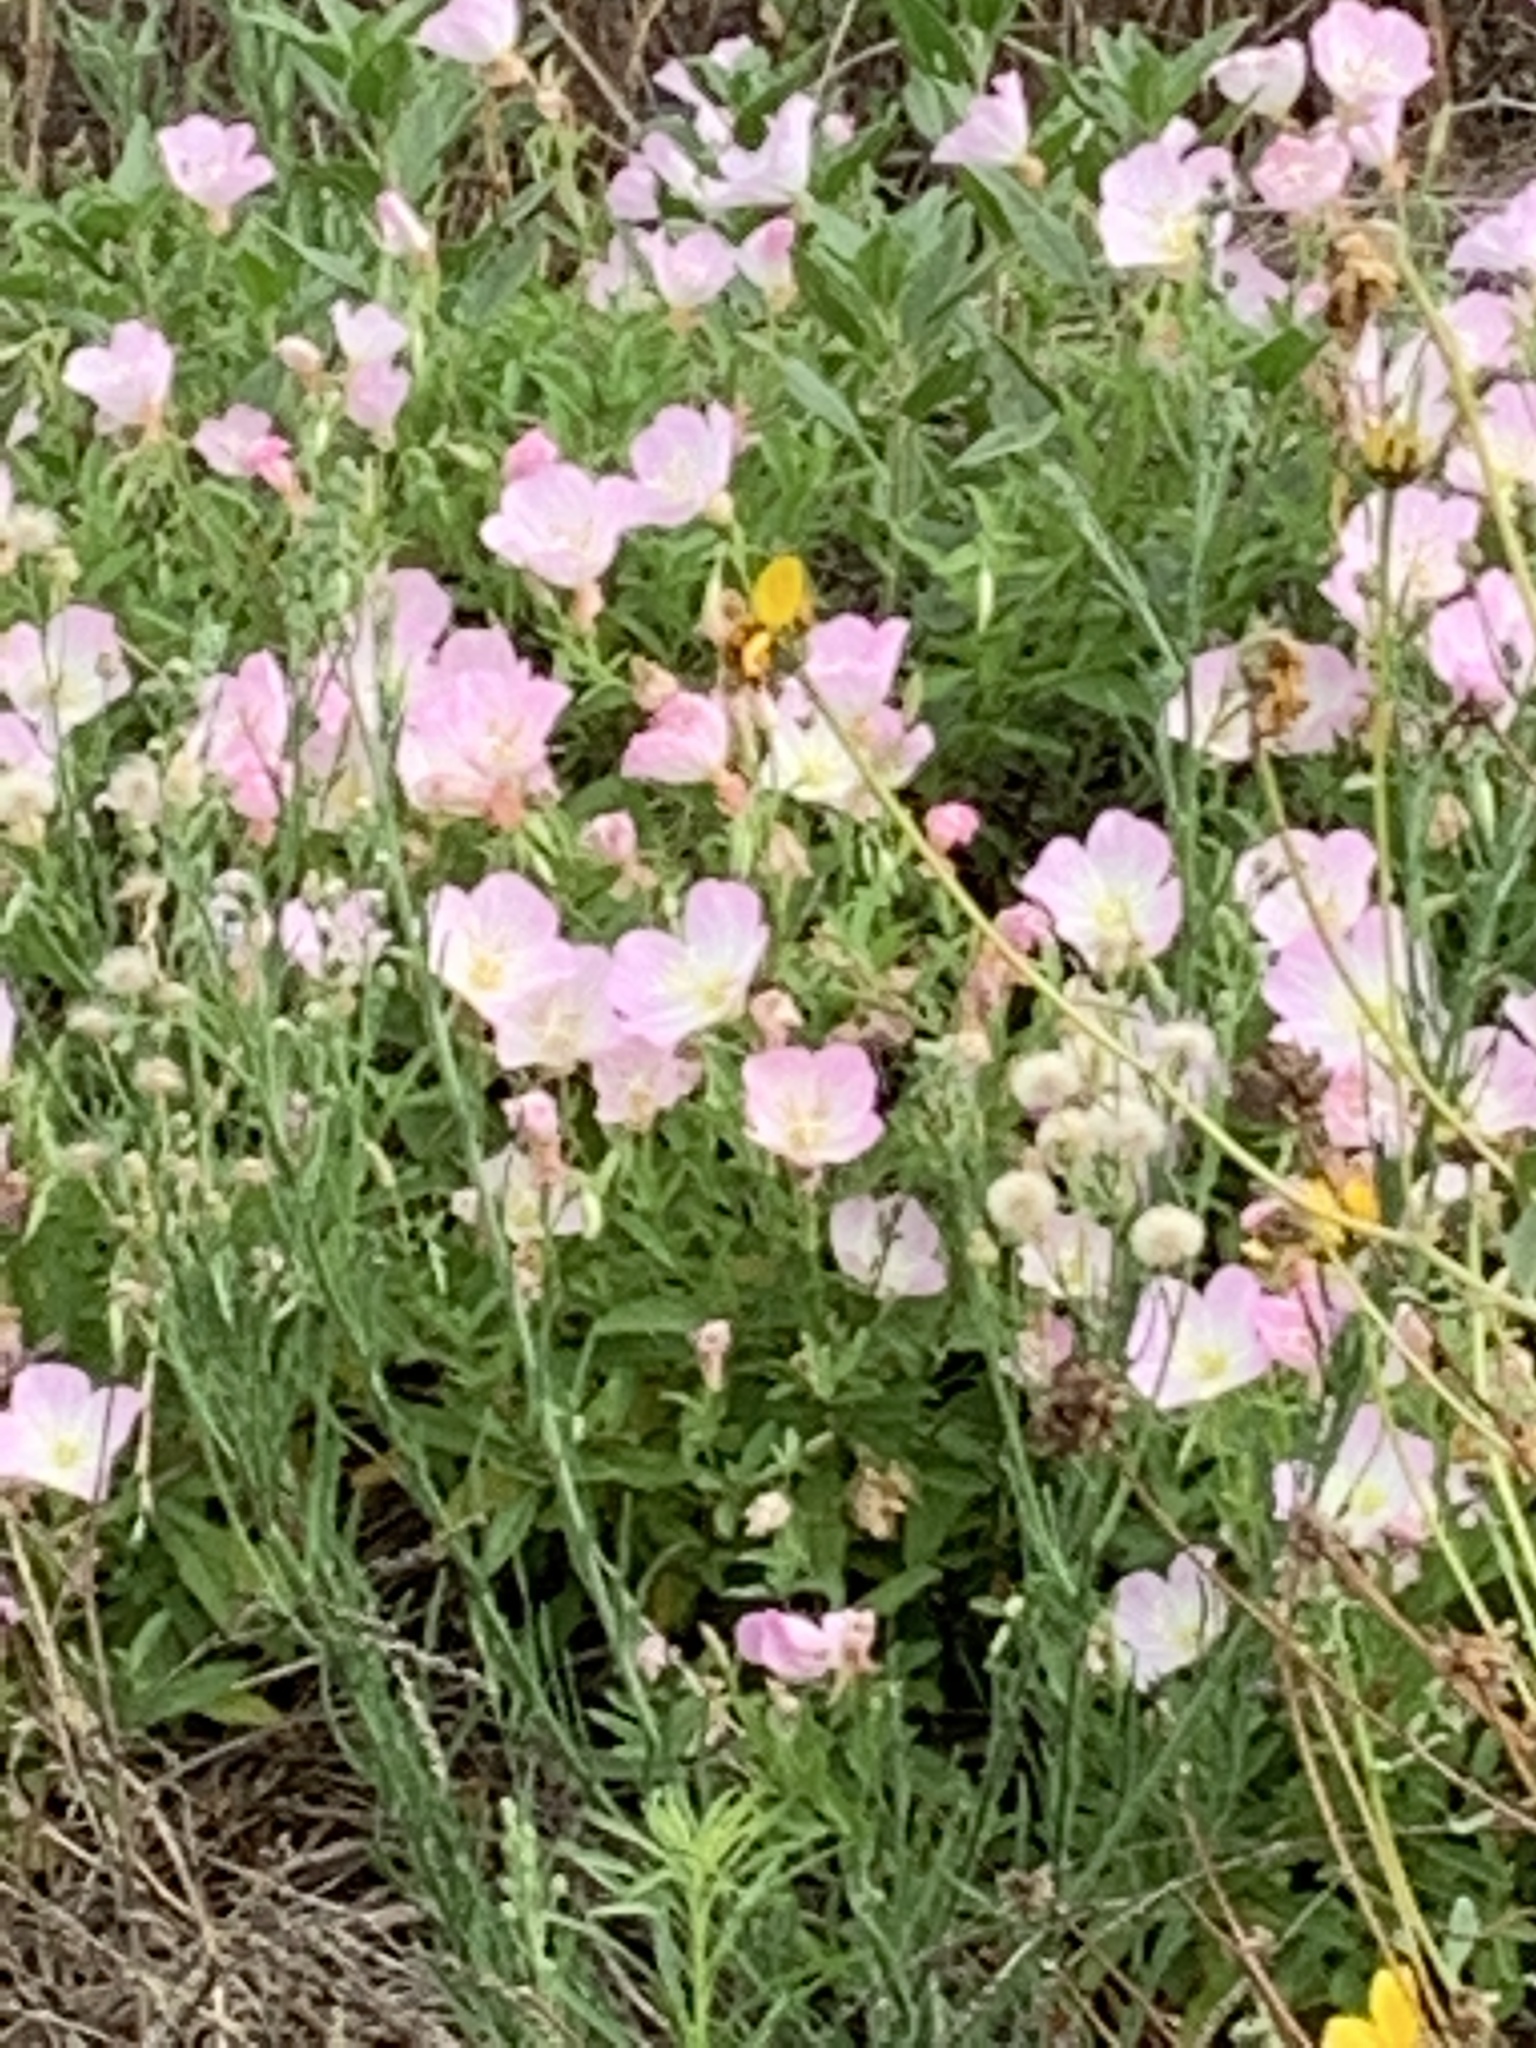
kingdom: Plantae
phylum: Tracheophyta
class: Magnoliopsida
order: Myrtales
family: Onagraceae
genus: Oenothera
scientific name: Oenothera speciosa
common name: White evening-primrose
